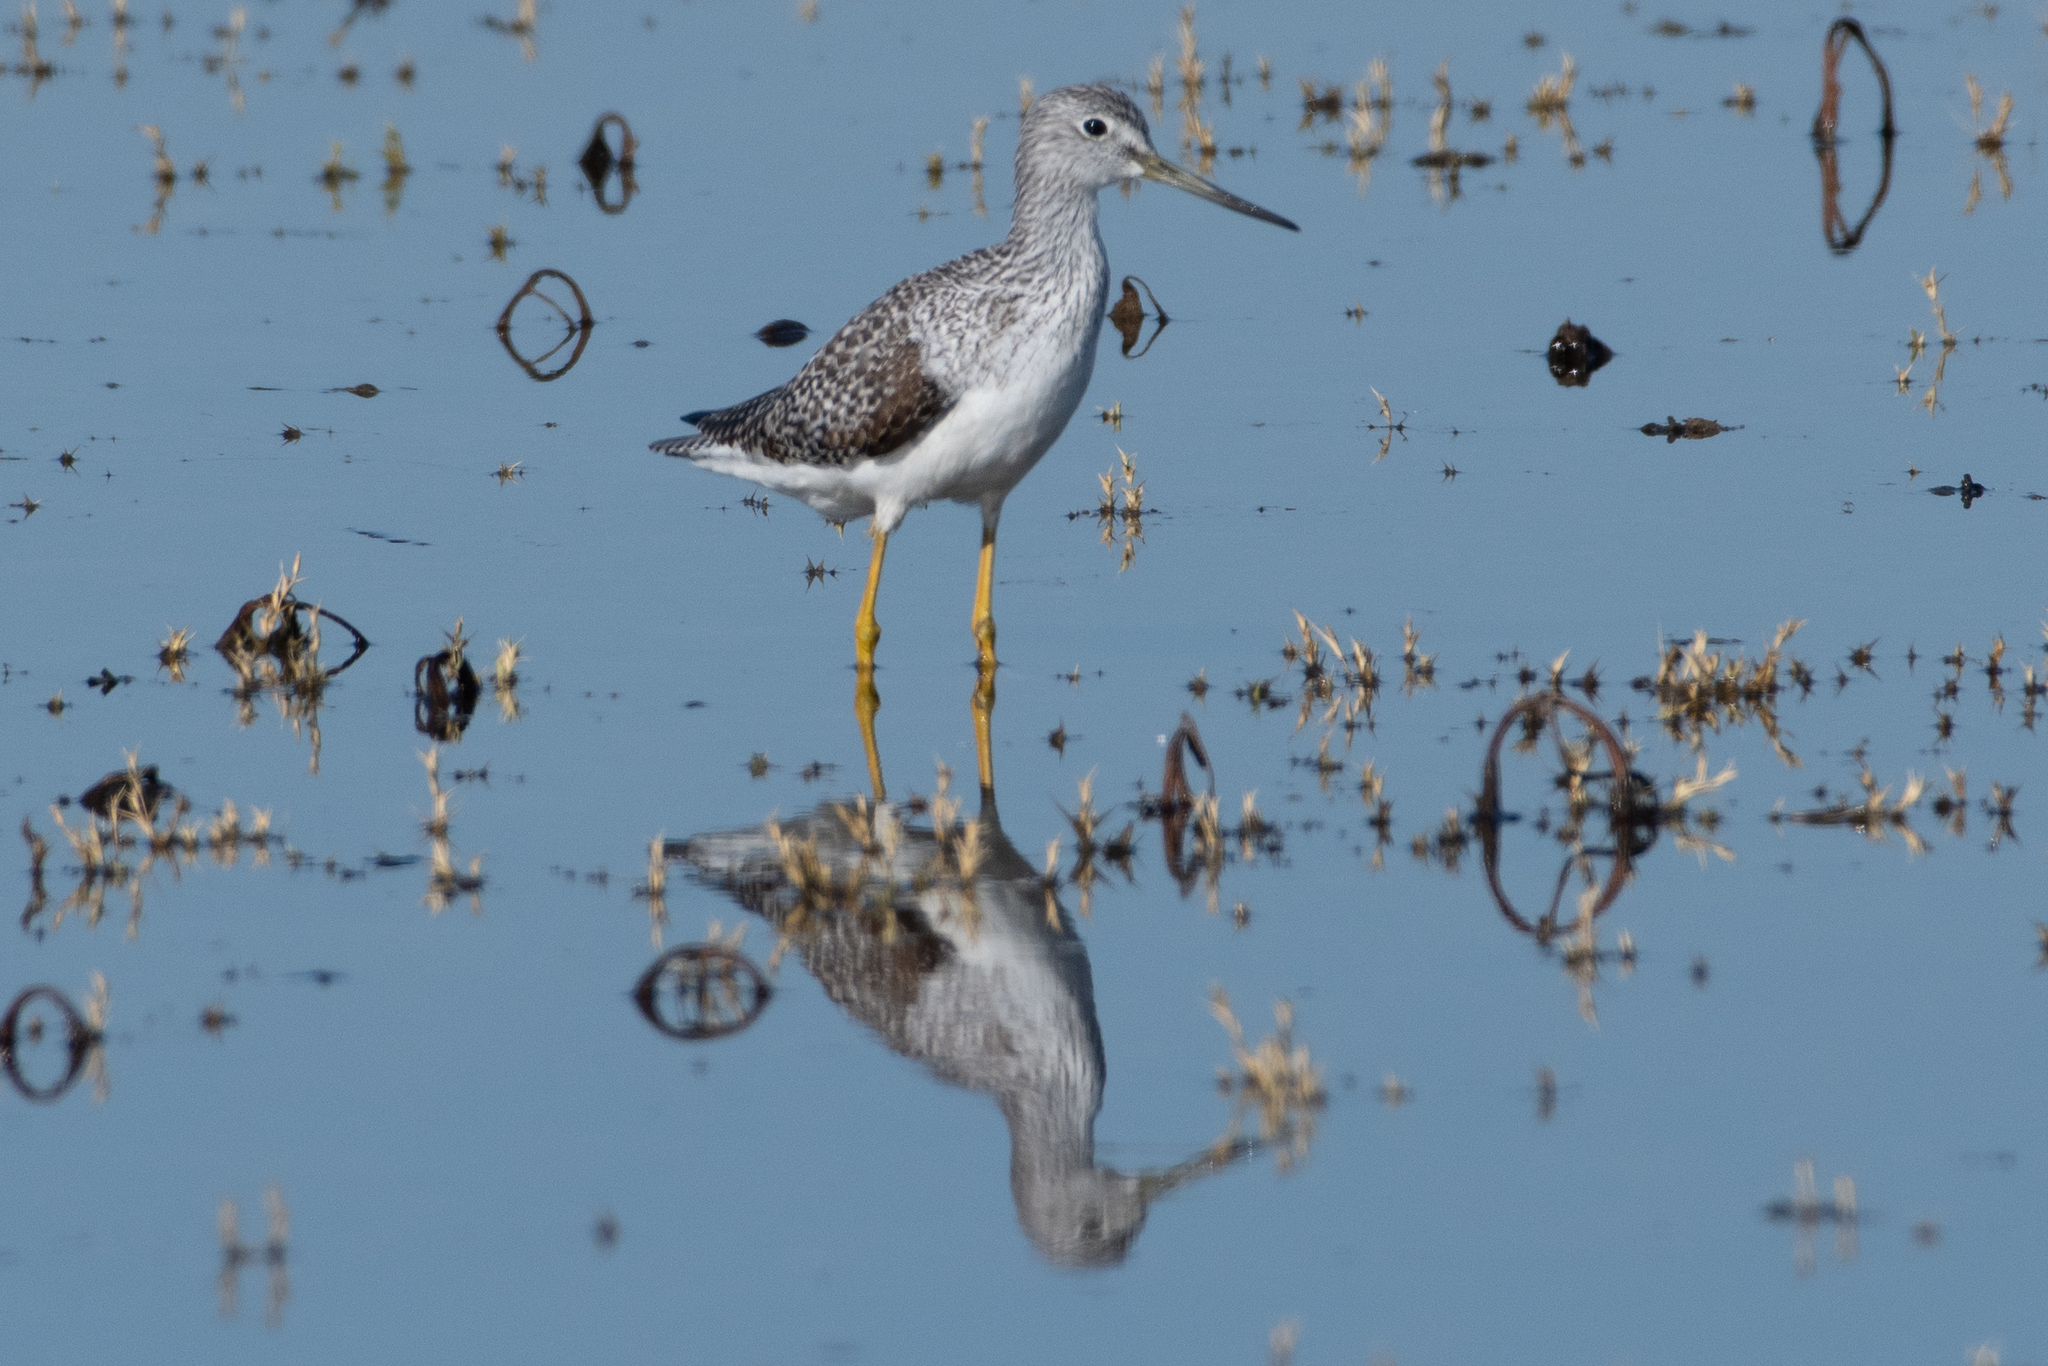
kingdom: Animalia
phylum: Chordata
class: Aves
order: Charadriiformes
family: Scolopacidae
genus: Tringa
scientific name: Tringa melanoleuca
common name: Greater yellowlegs
